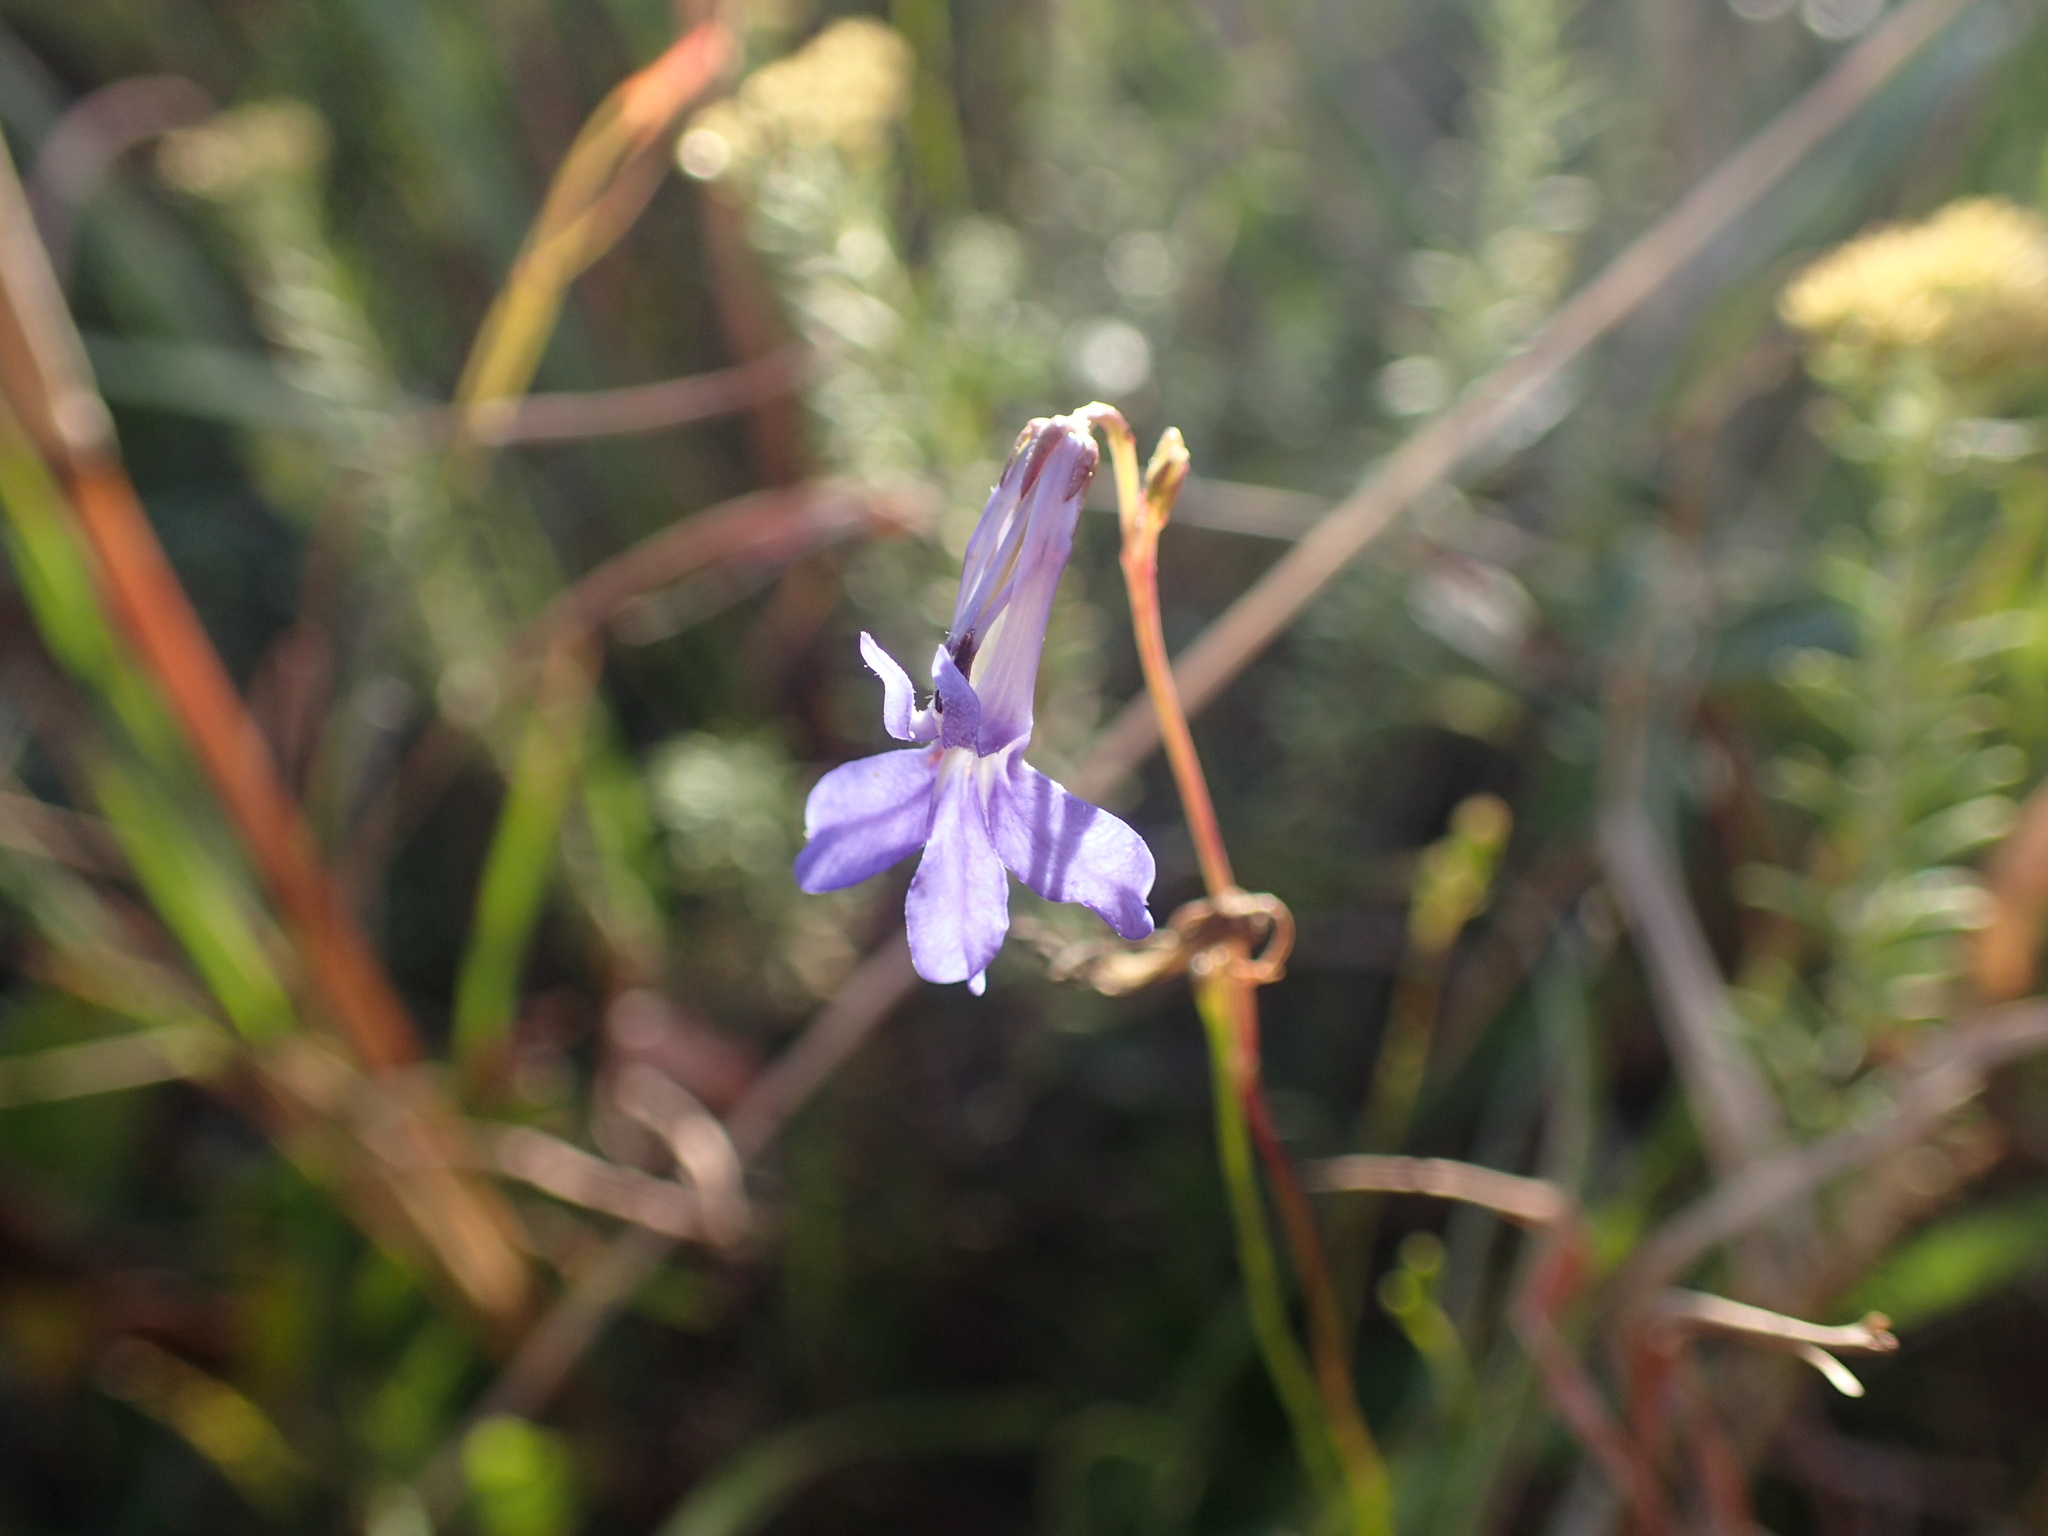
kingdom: Plantae
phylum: Tracheophyta
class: Magnoliopsida
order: Asterales
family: Campanulaceae
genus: Lobelia
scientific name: Lobelia caerulea
